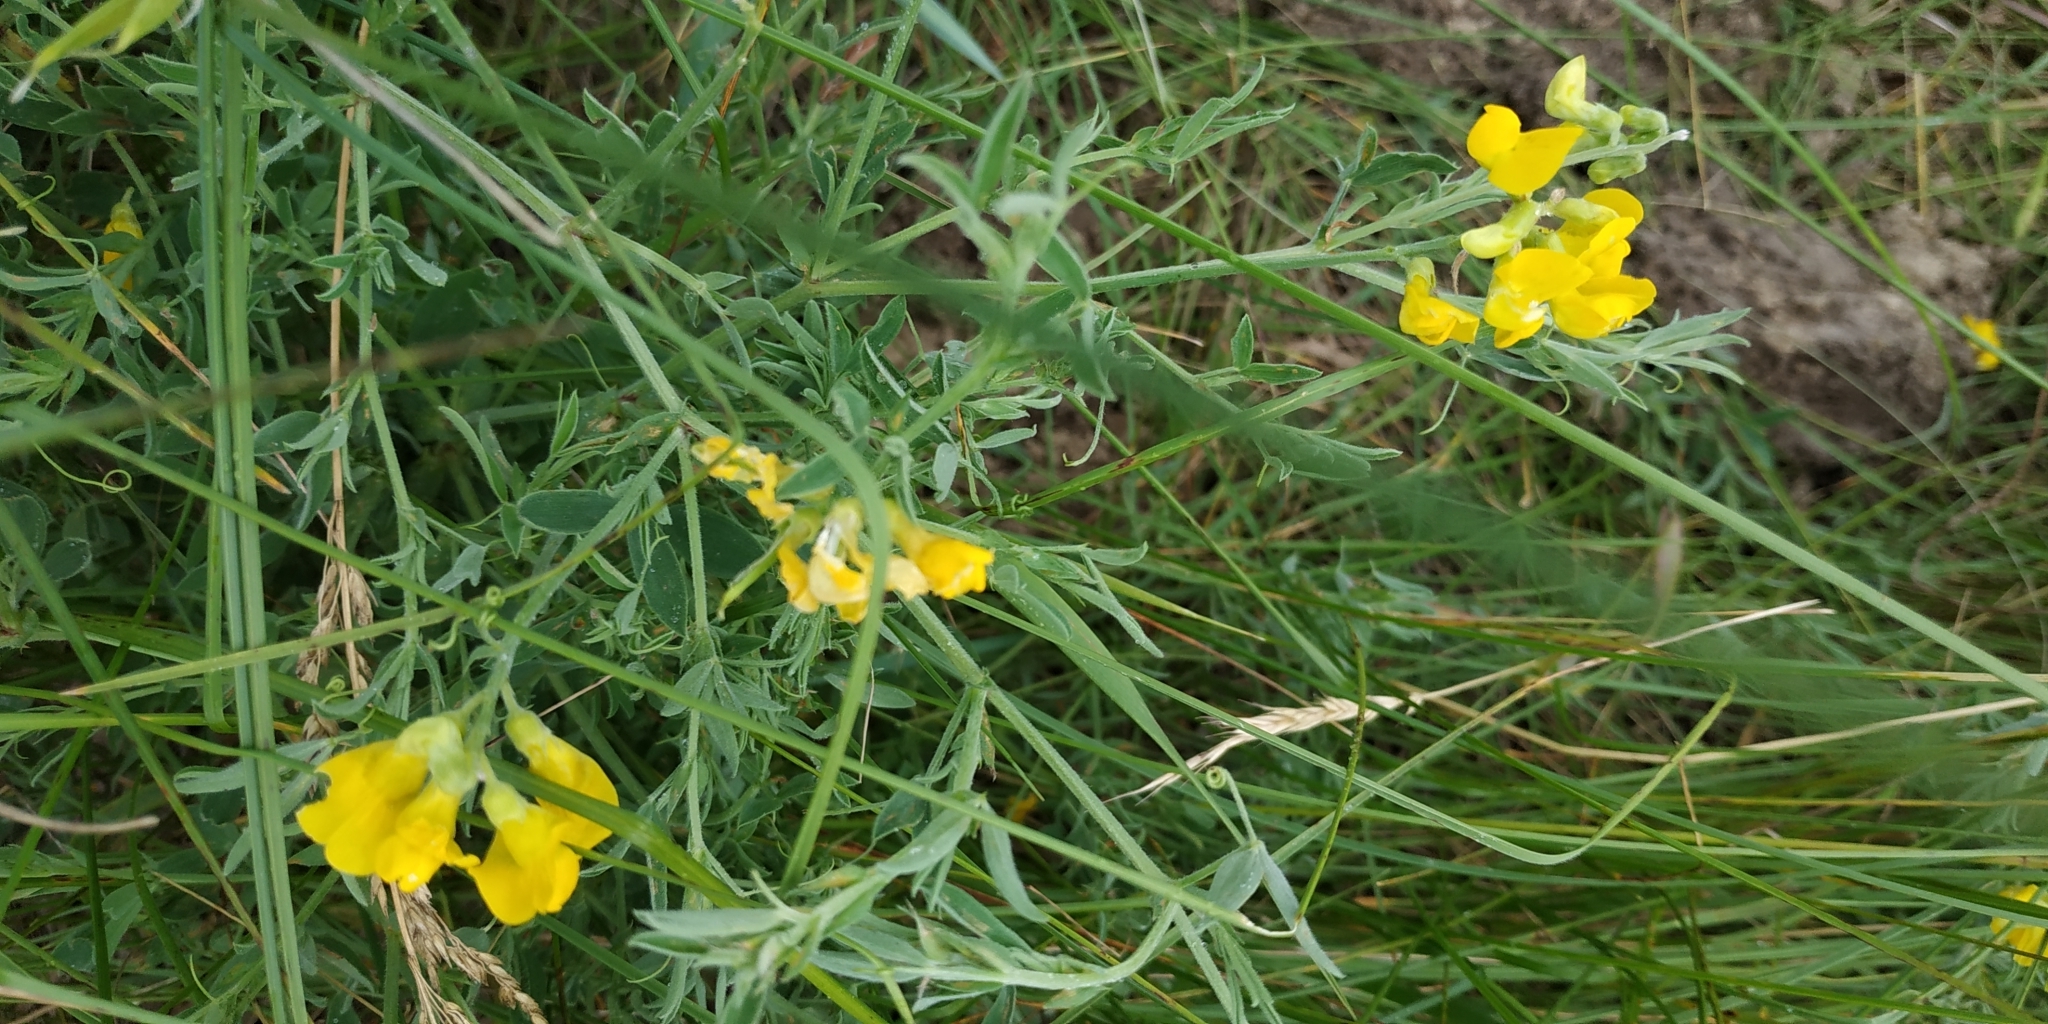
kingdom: Plantae
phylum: Tracheophyta
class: Magnoliopsida
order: Fabales
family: Fabaceae
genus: Lathyrus
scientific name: Lathyrus pratensis
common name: Meadow vetchling
